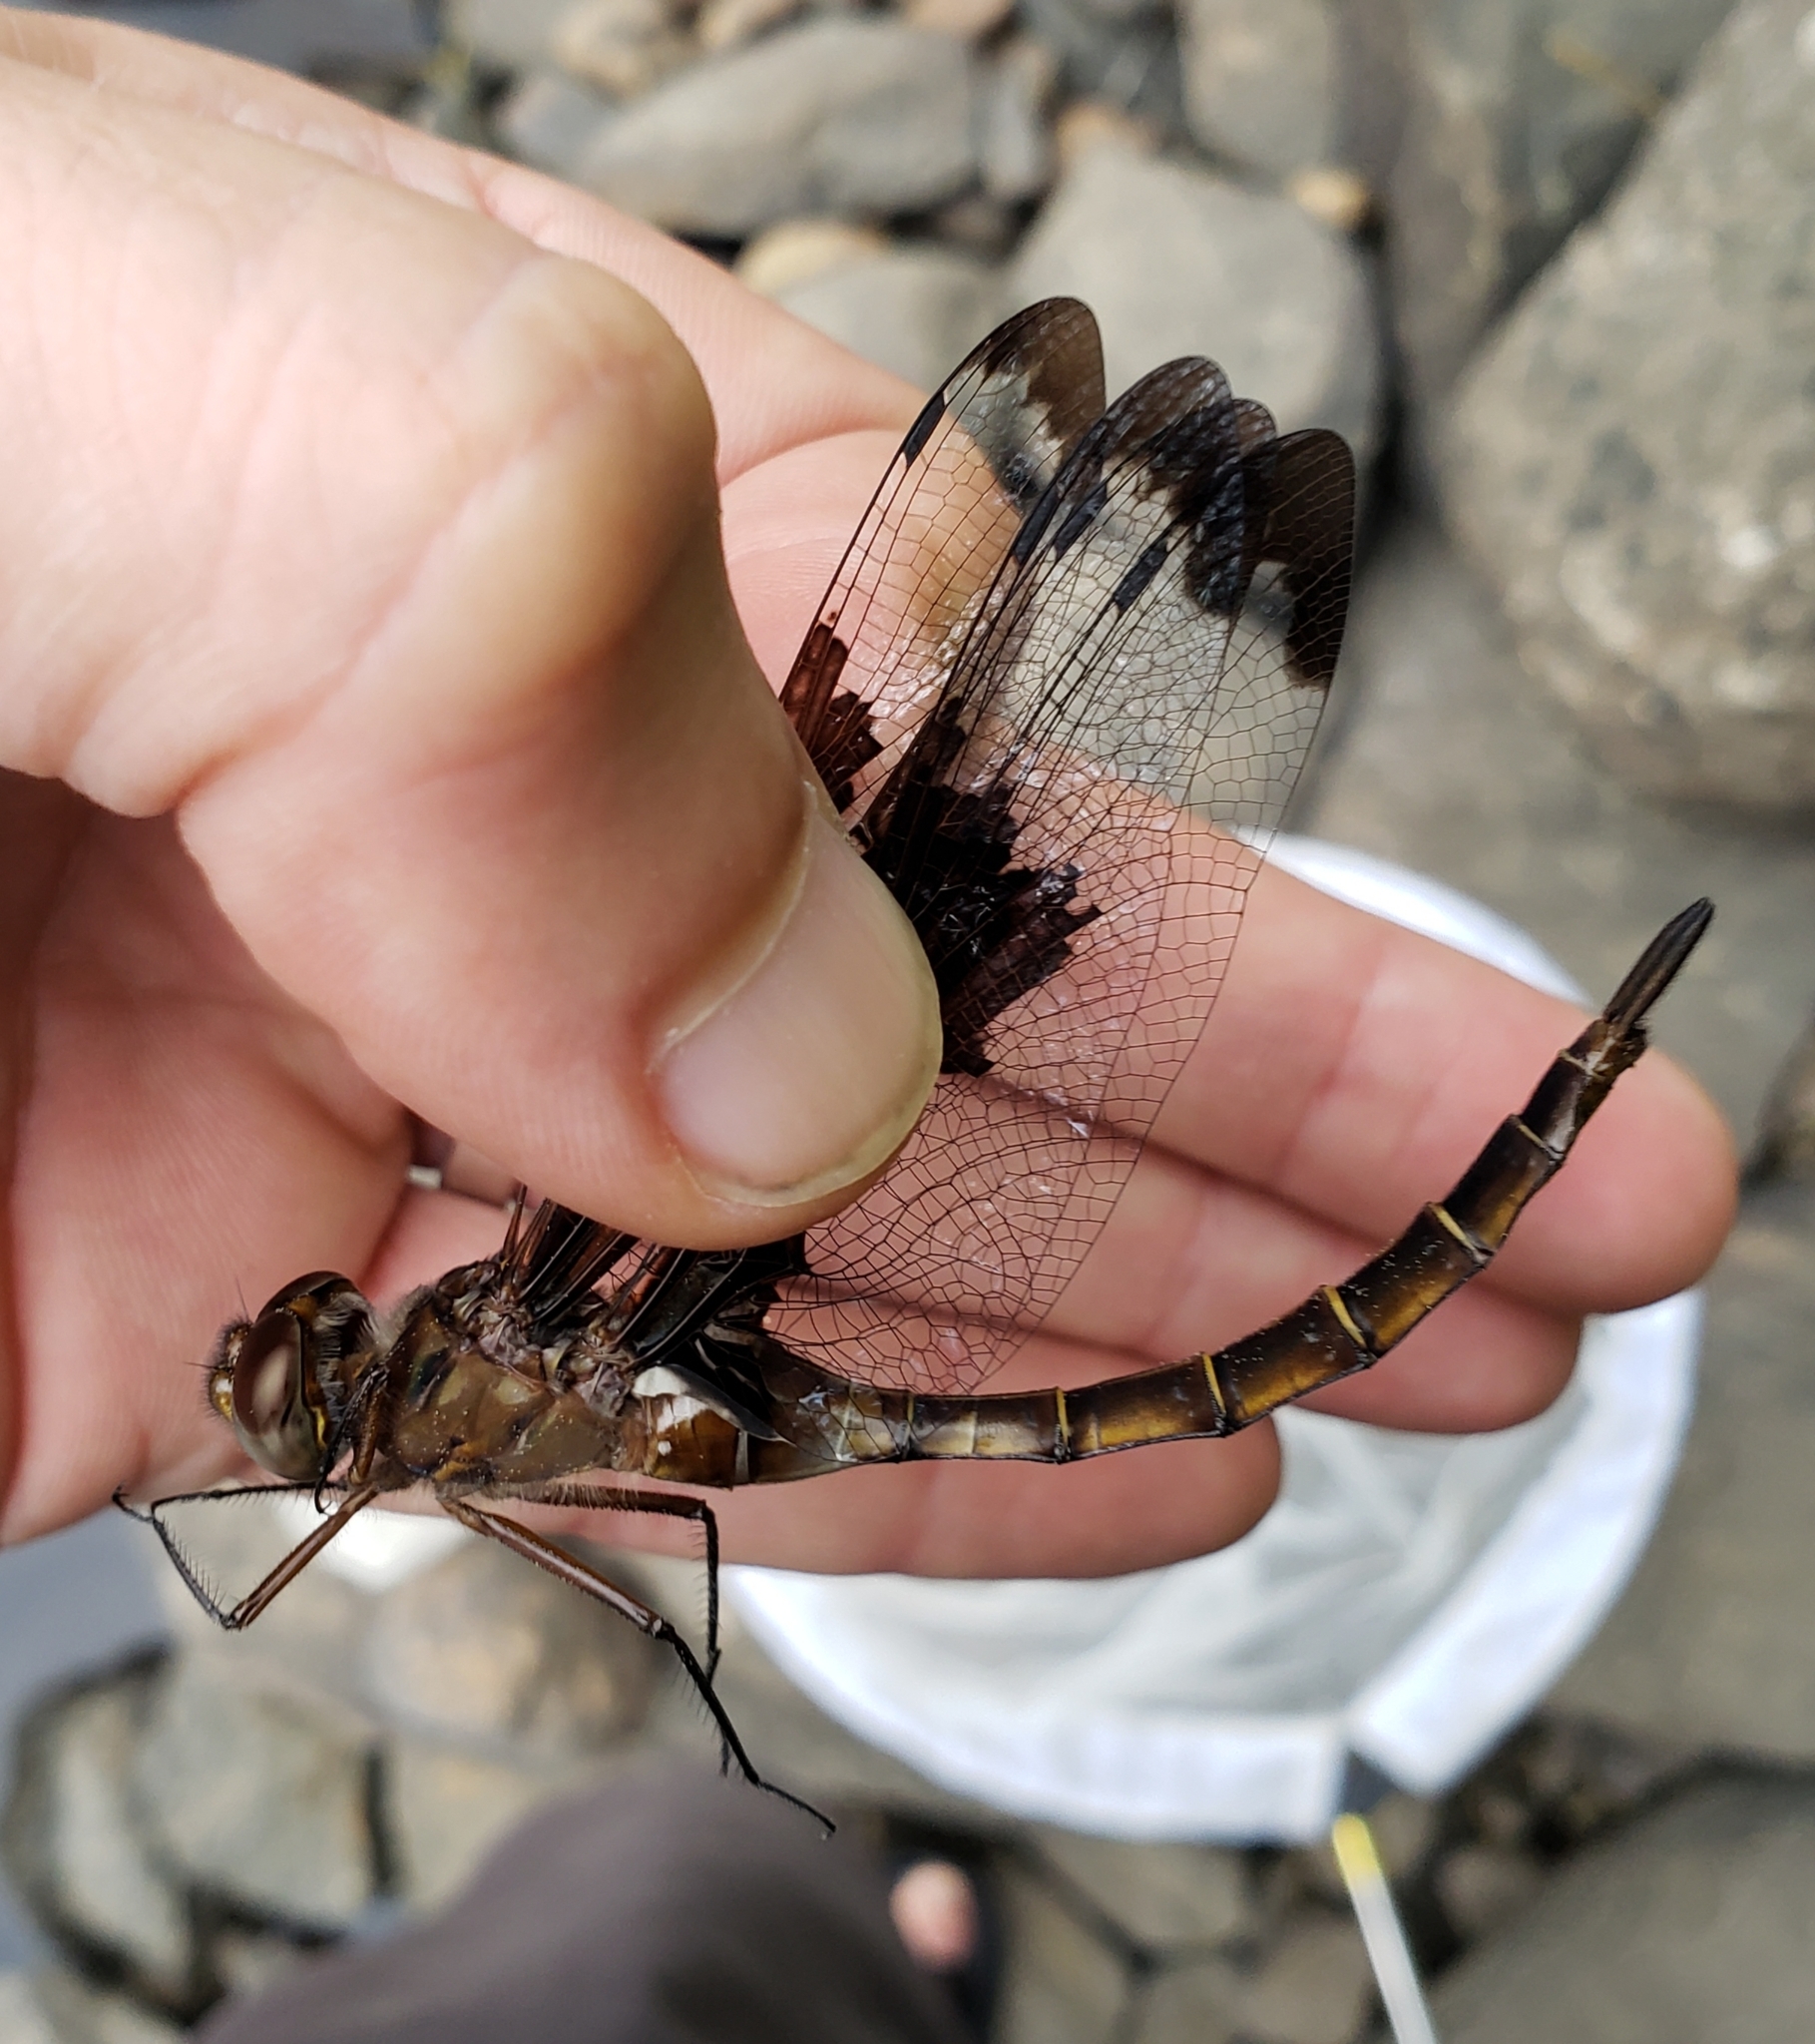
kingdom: Animalia
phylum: Arthropoda
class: Insecta
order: Odonata
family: Corduliidae
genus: Epitheca
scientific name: Epitheca princeps
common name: Prince baskettail
